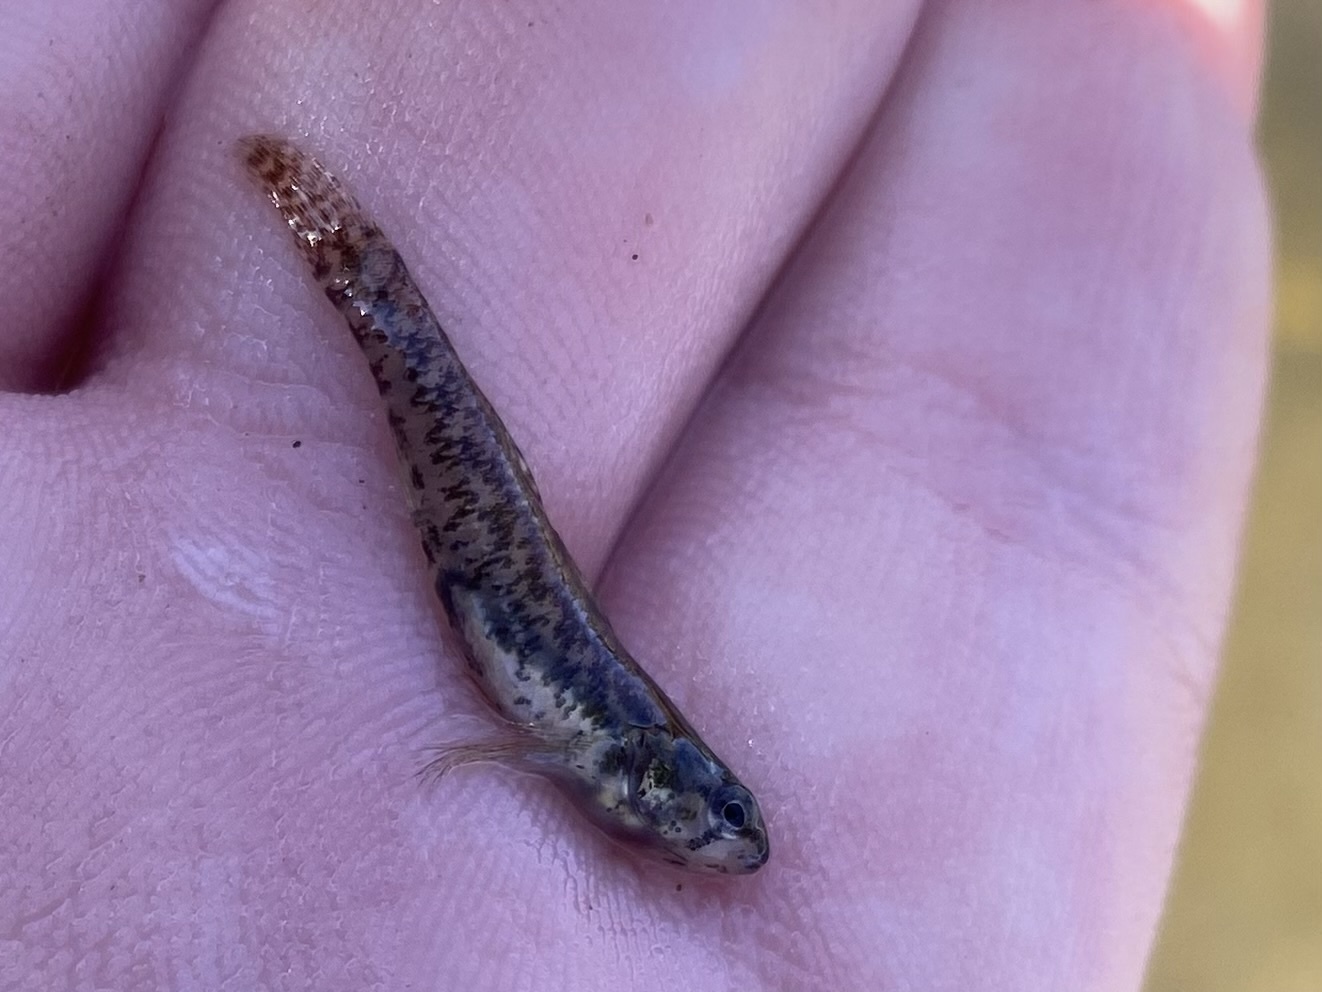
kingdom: Animalia
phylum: Chordata
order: Perciformes
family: Percidae
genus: Etheostoma
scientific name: Etheostoma microperca
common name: Least darter
